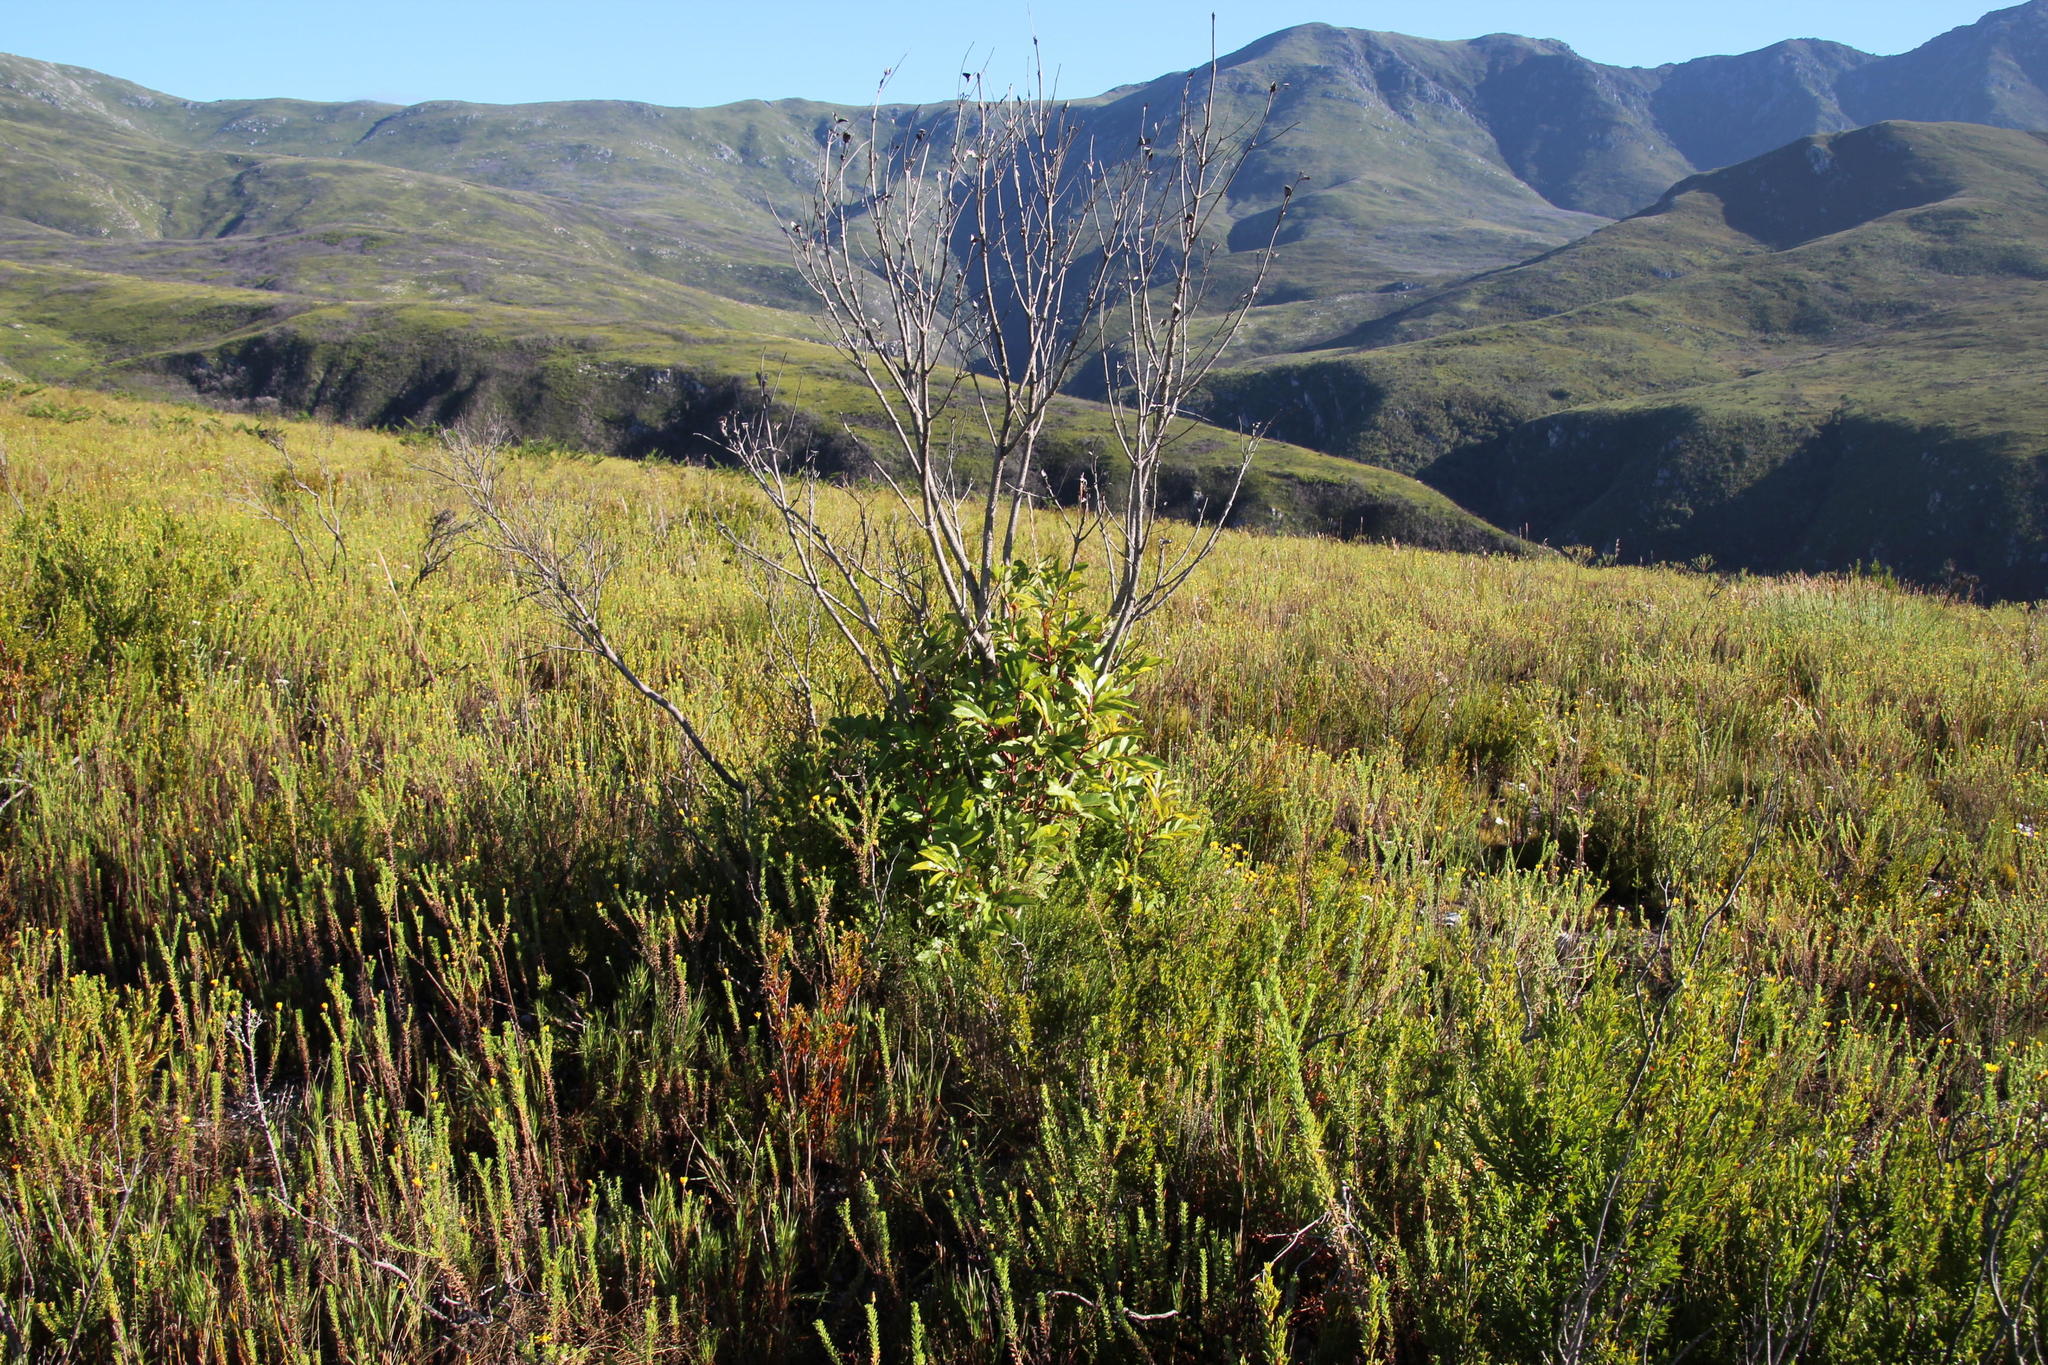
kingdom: Plantae
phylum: Tracheophyta
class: Magnoliopsida
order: Oxalidales
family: Cunoniaceae
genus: Cunonia
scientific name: Cunonia capensis
